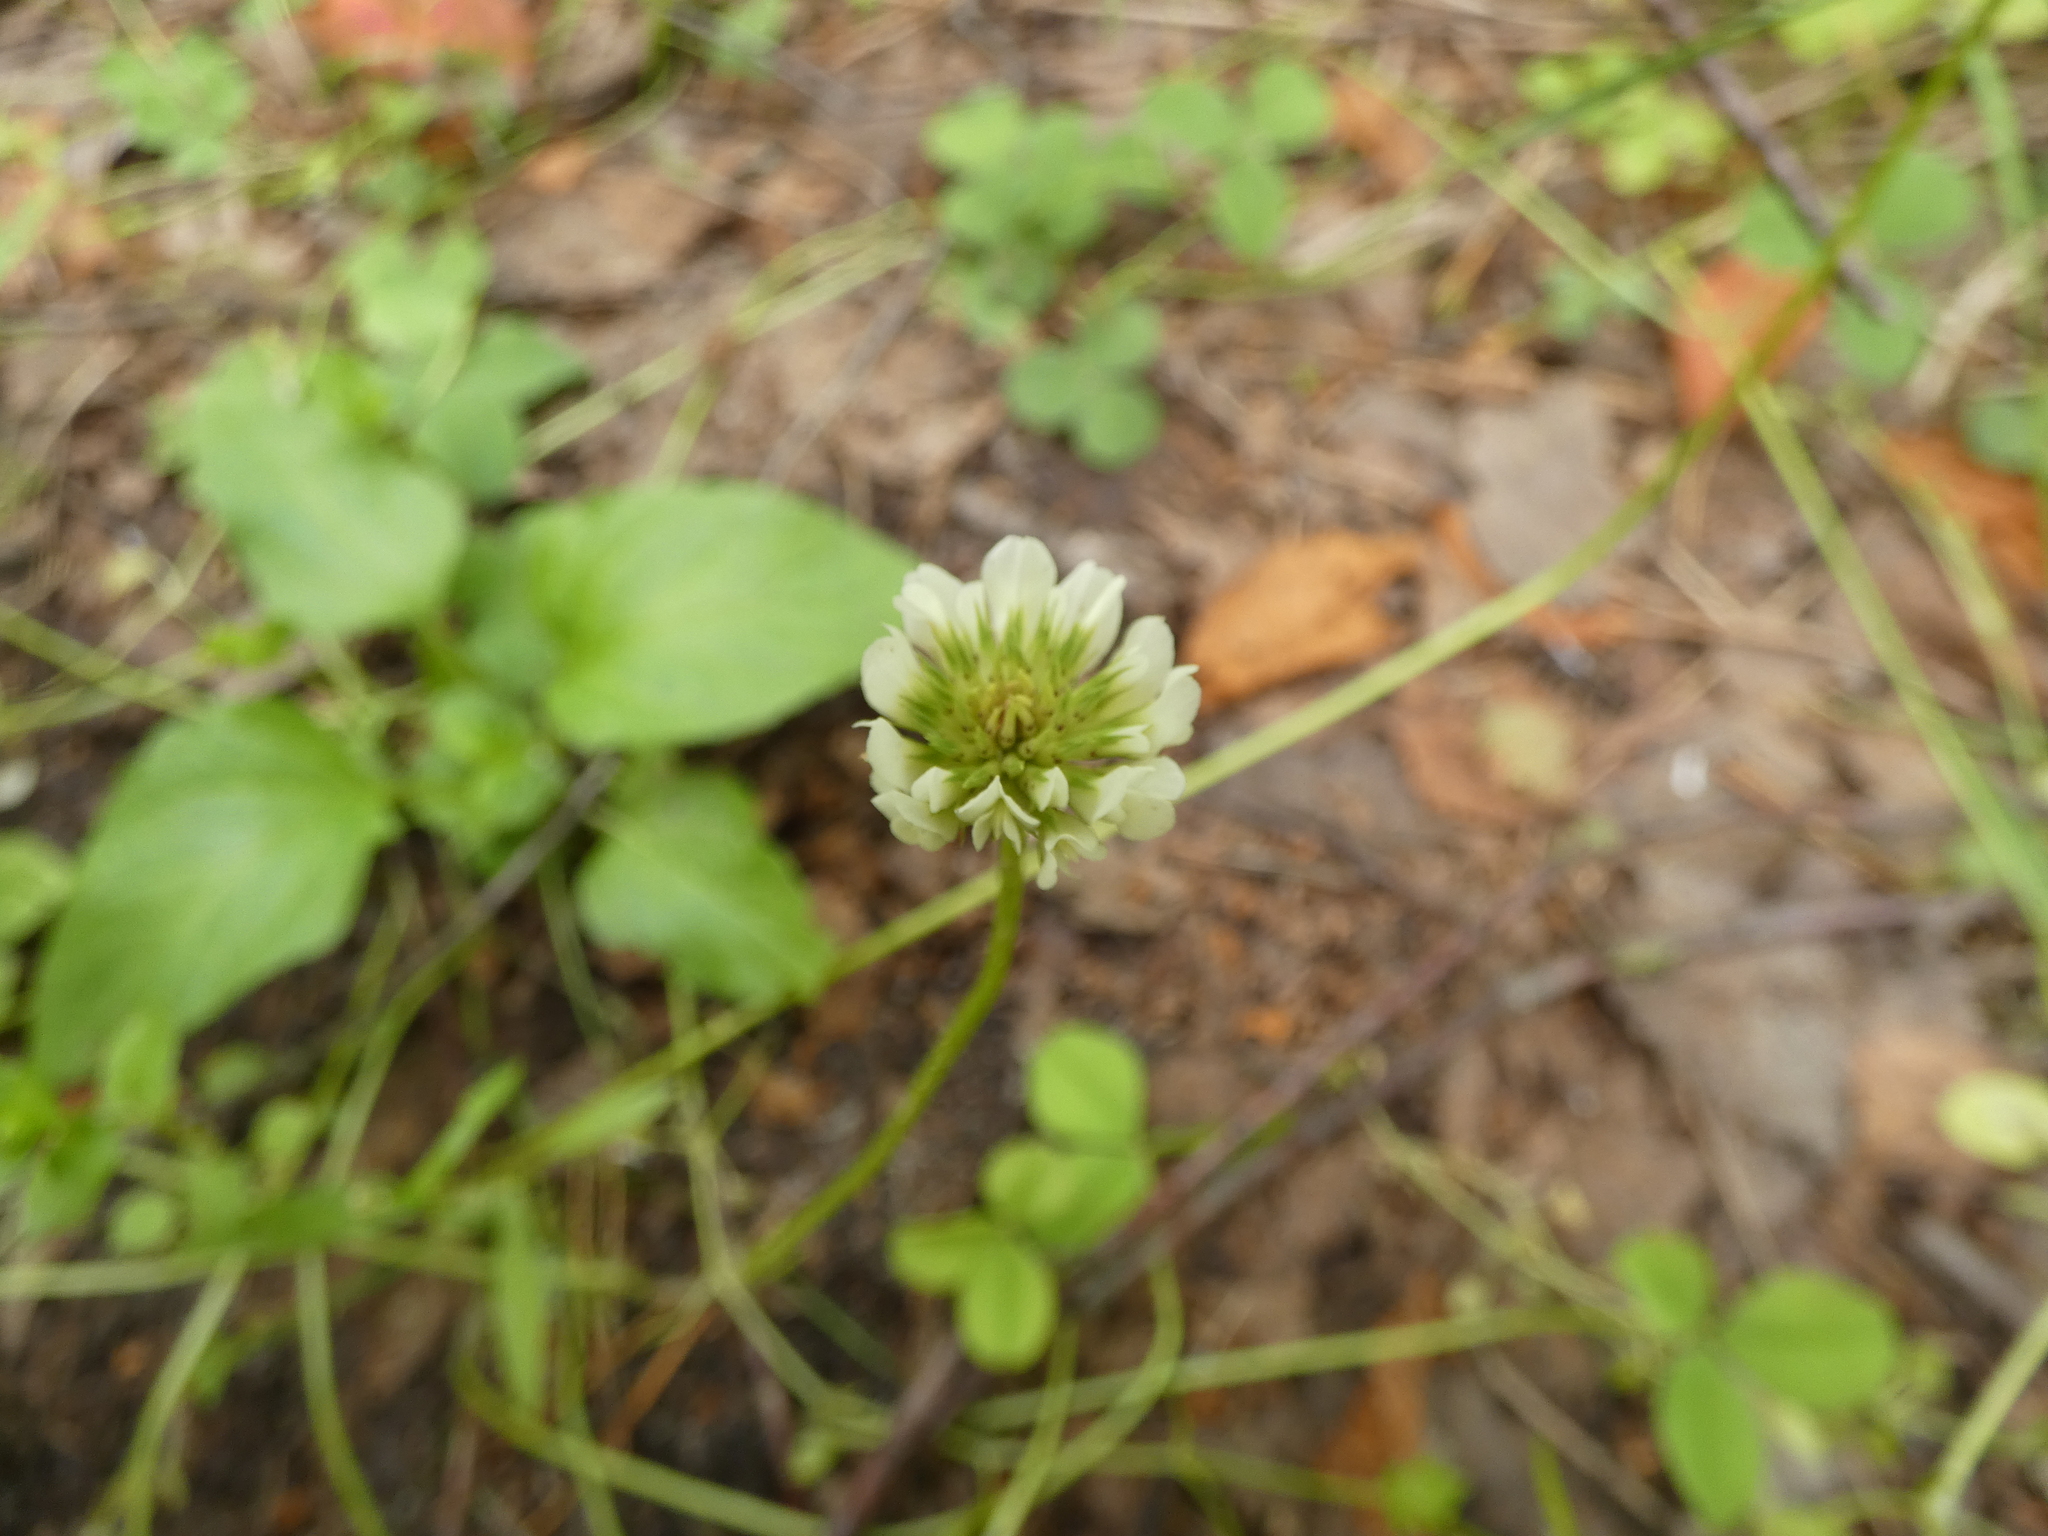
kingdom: Plantae
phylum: Tracheophyta
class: Magnoliopsida
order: Fabales
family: Fabaceae
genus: Trifolium
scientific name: Trifolium repens
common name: White clover
